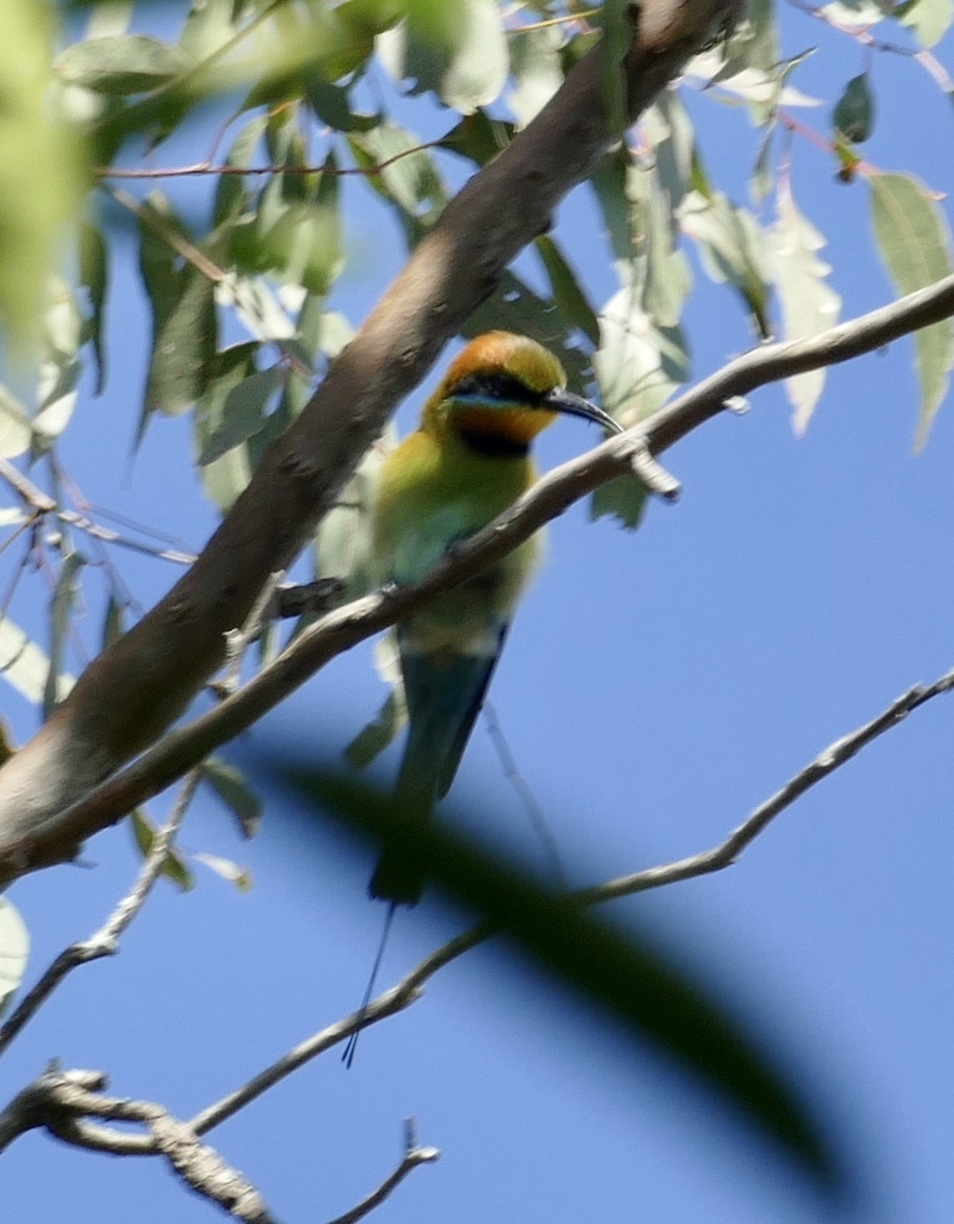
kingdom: Animalia
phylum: Chordata
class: Aves
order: Coraciiformes
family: Meropidae
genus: Merops
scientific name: Merops ornatus
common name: Rainbow bee-eater
